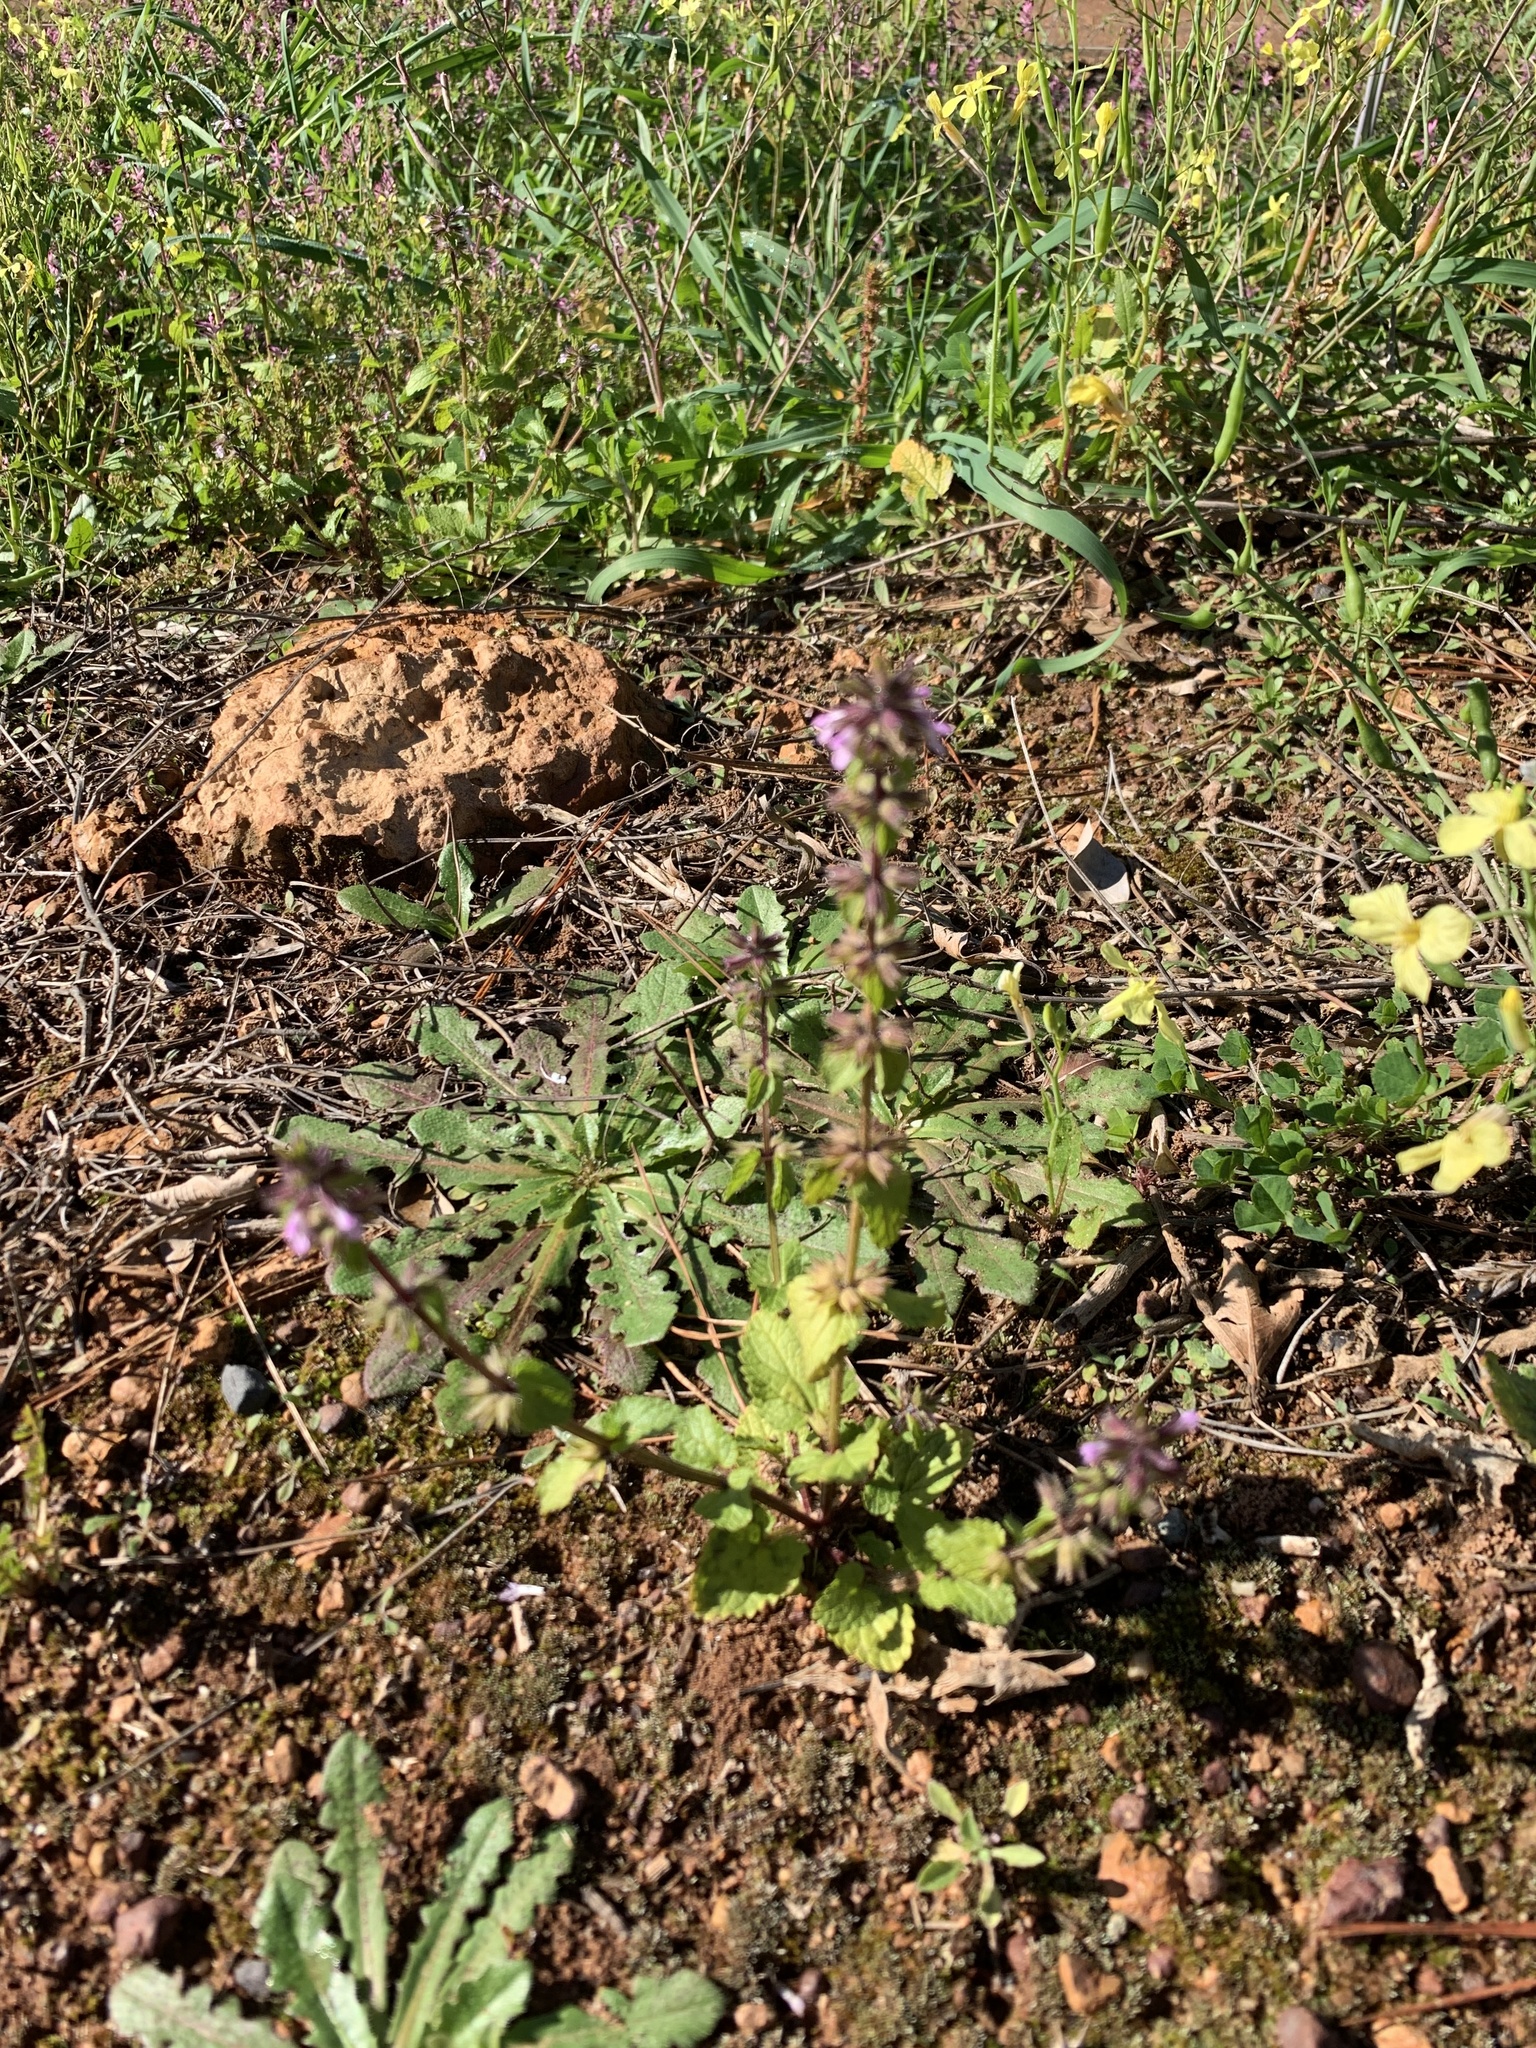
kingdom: Plantae
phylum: Tracheophyta
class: Magnoliopsida
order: Lamiales
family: Lamiaceae
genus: Stachys
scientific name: Stachys arvensis
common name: Field woundwort
